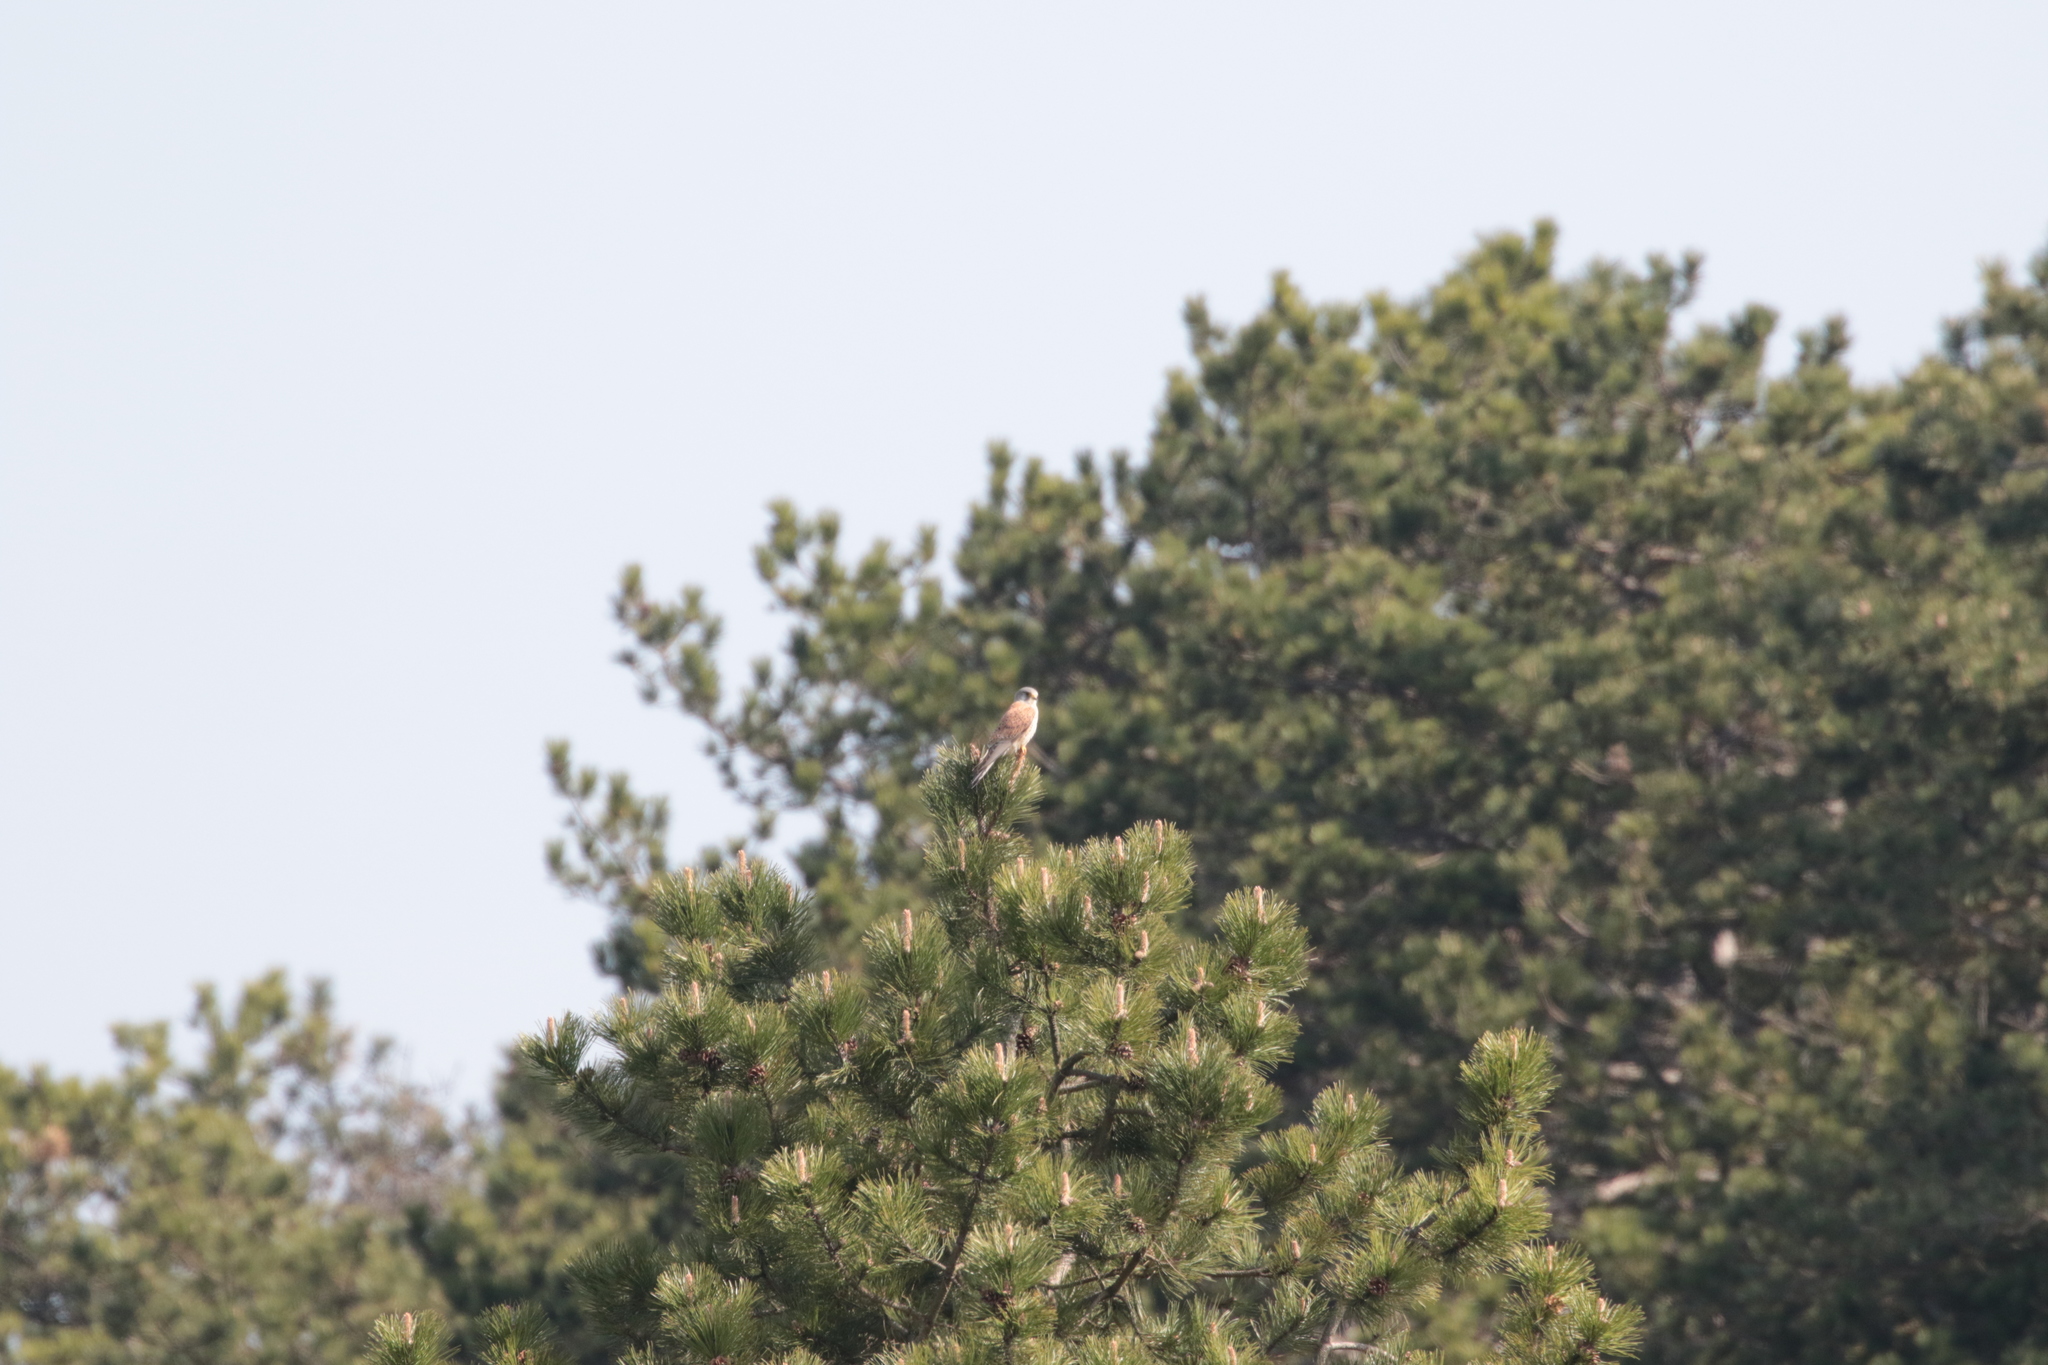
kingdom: Animalia
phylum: Chordata
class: Aves
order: Falconiformes
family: Falconidae
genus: Falco
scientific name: Falco tinnunculus
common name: Common kestrel
